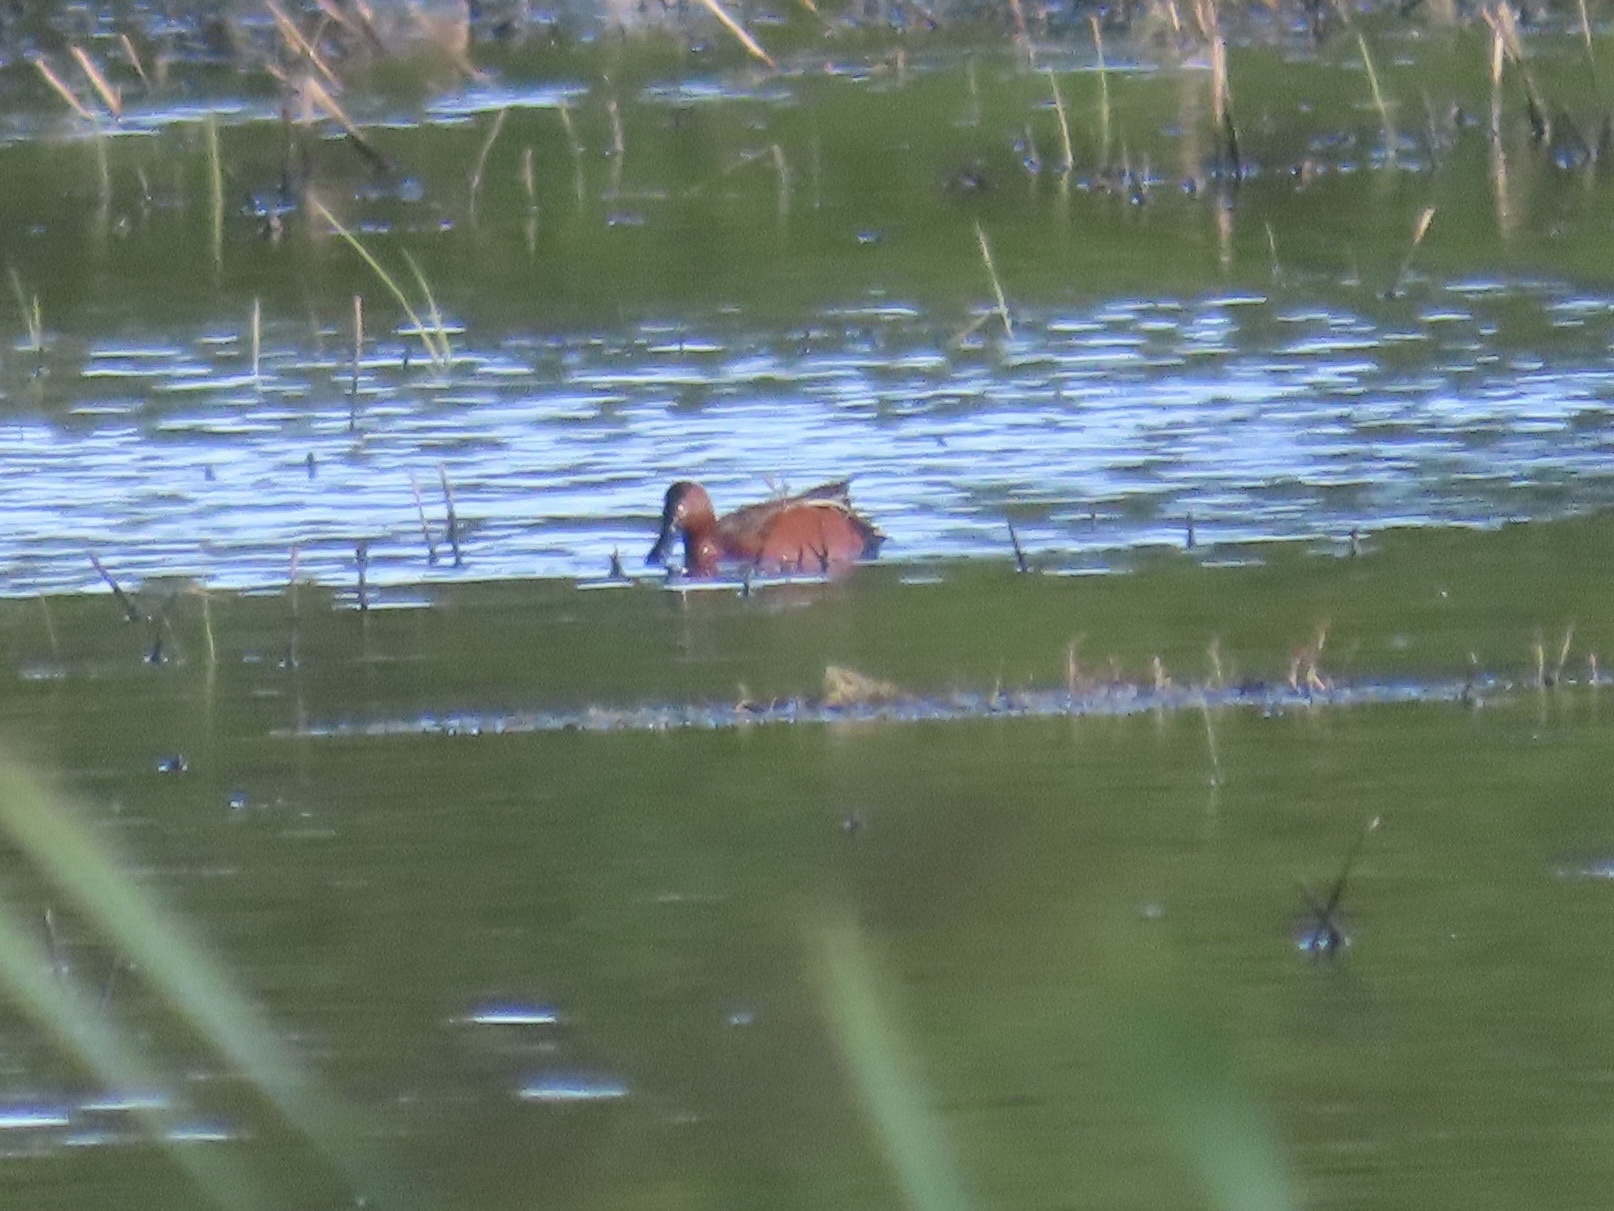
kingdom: Animalia
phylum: Chordata
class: Aves
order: Anseriformes
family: Anatidae
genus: Spatula
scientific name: Spatula cyanoptera
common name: Cinnamon teal
